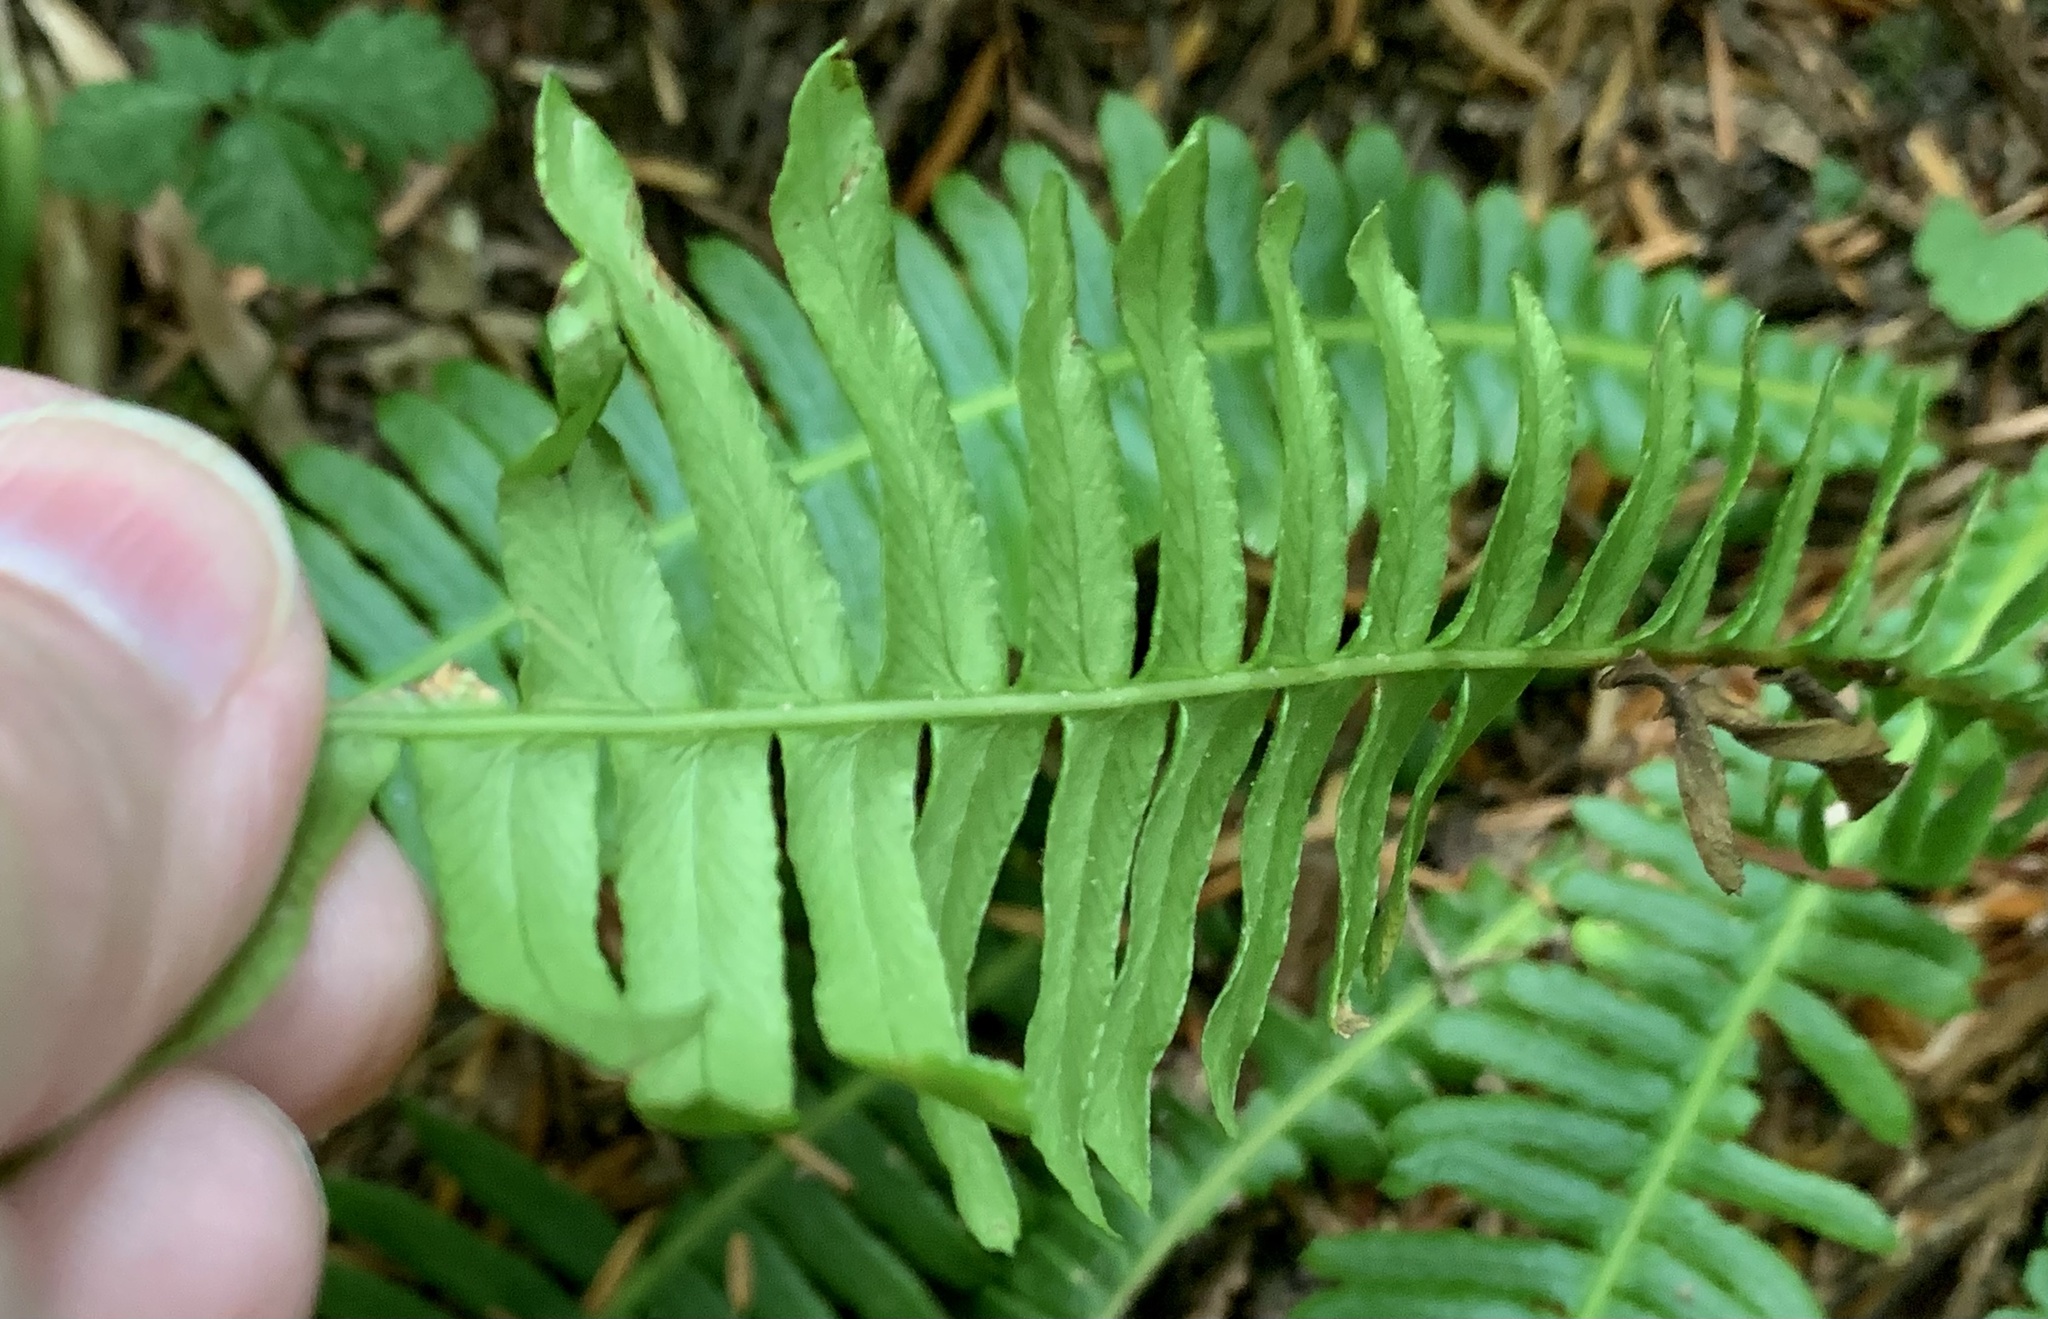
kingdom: Plantae
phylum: Tracheophyta
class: Polypodiopsida
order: Polypodiales
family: Blechnaceae
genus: Struthiopteris
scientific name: Struthiopteris spicant
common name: Deer fern
